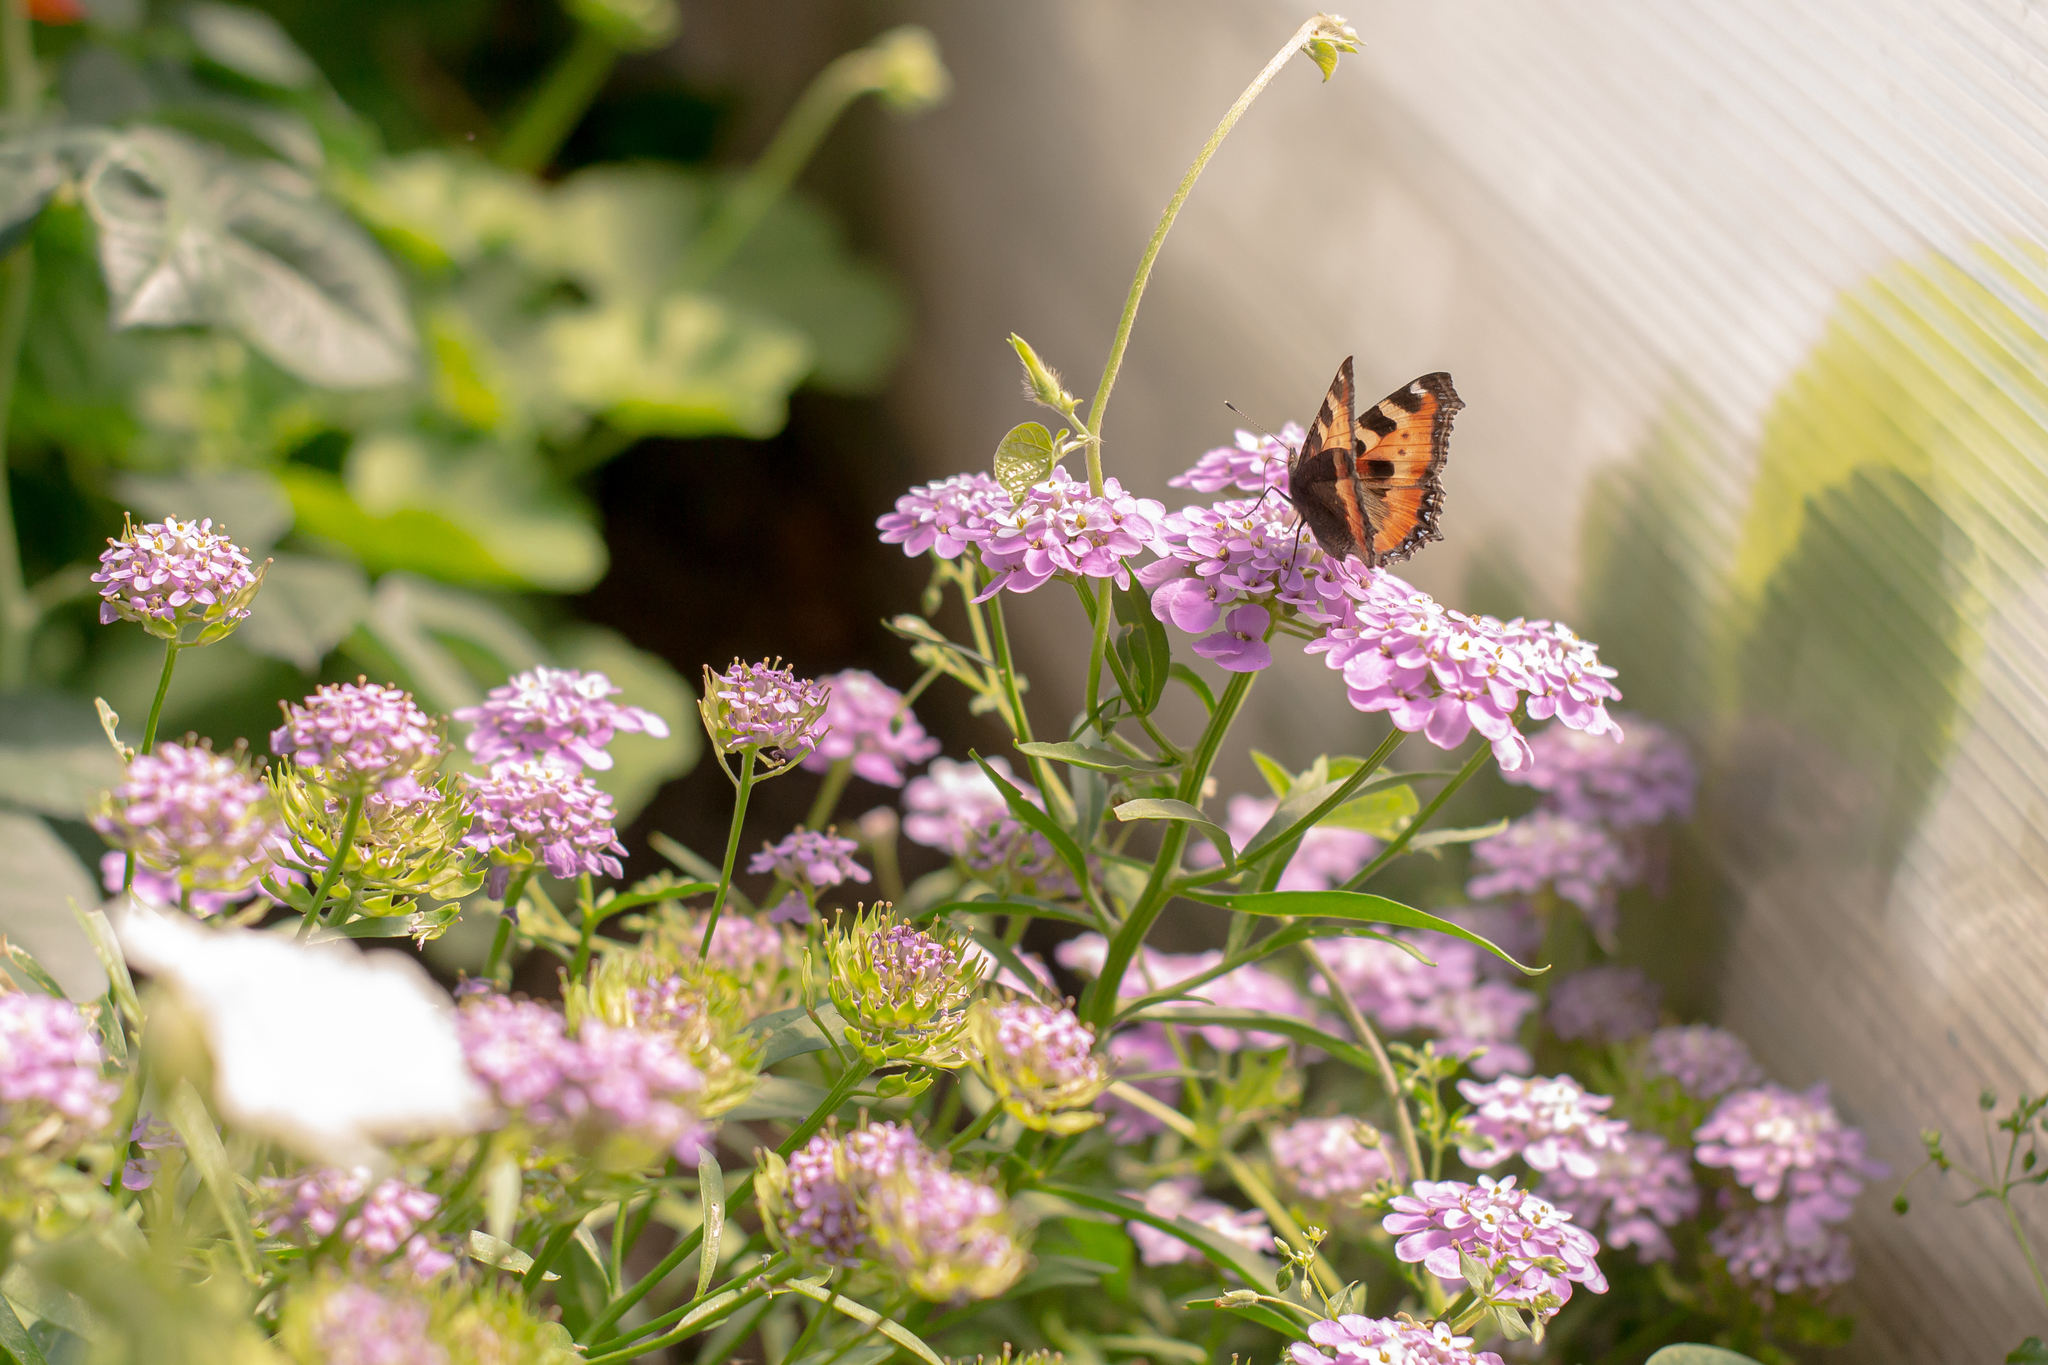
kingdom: Animalia
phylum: Arthropoda
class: Insecta
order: Lepidoptera
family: Nymphalidae
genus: Aglais
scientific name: Aglais urticae
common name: Small tortoiseshell
